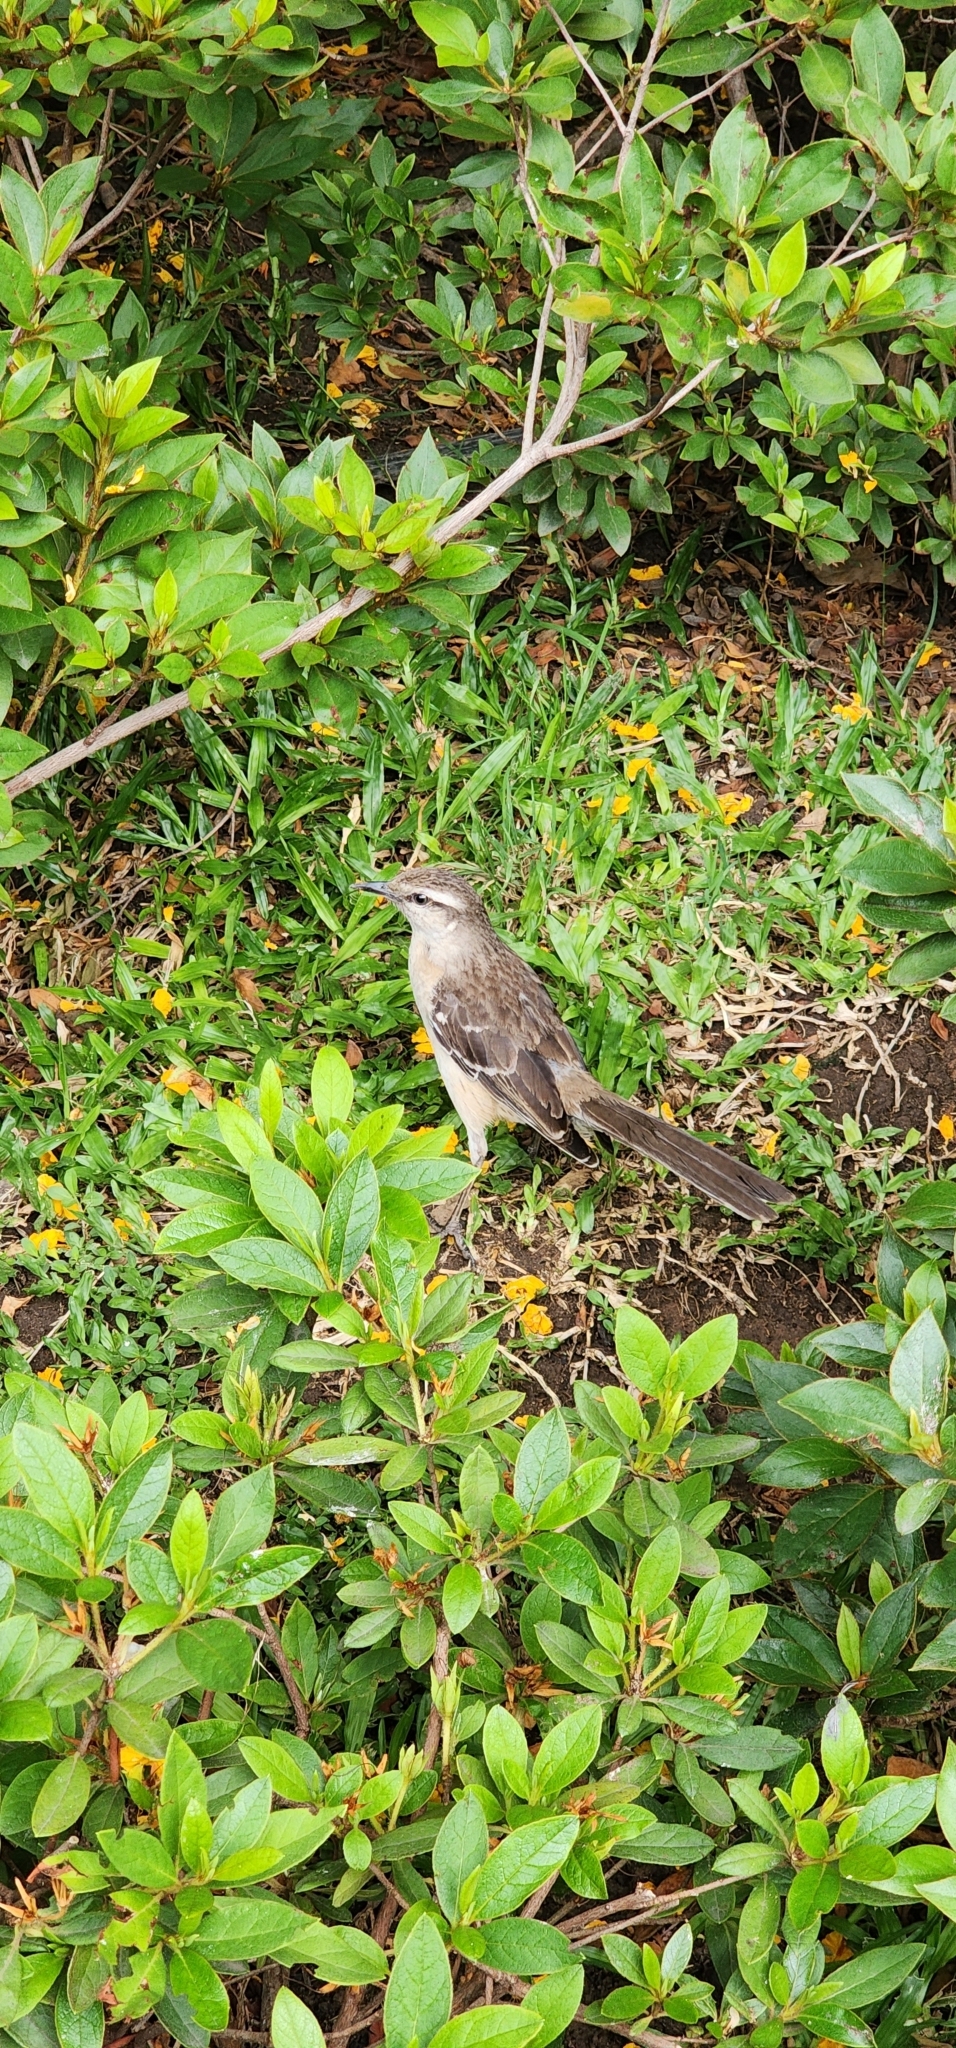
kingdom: Animalia
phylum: Chordata
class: Aves
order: Passeriformes
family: Mimidae
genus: Mimus
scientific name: Mimus saturninus
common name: Chalk-browed mockingbird
